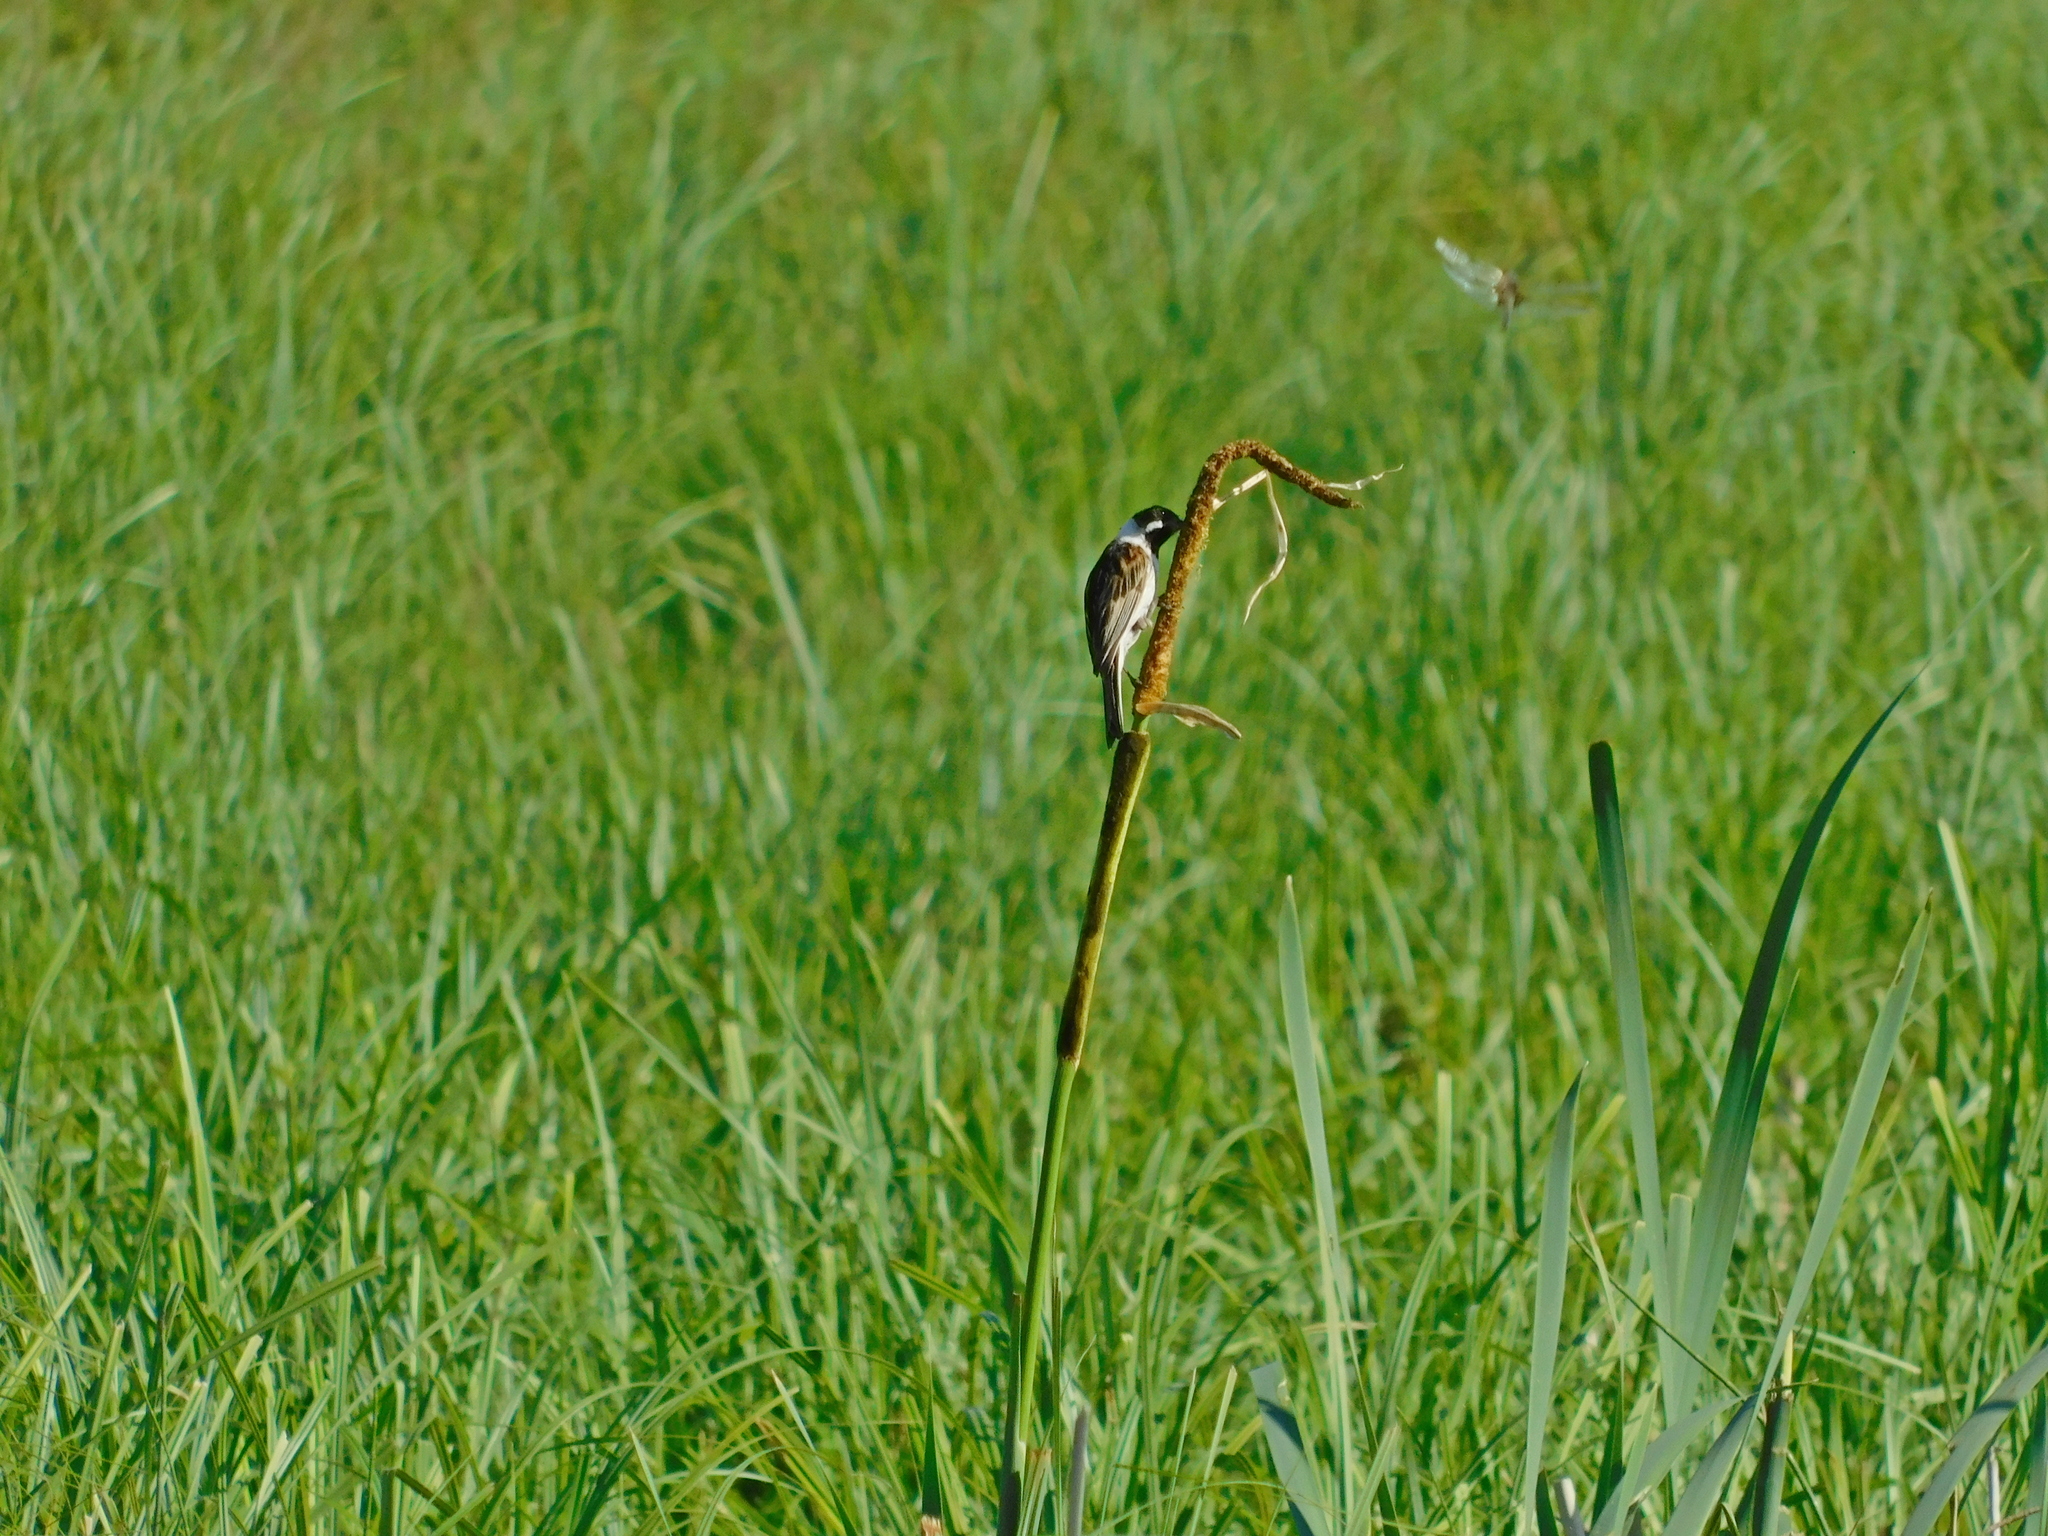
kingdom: Animalia
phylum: Chordata
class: Aves
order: Passeriformes
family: Emberizidae
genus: Emberiza
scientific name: Emberiza schoeniclus
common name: Reed bunting
